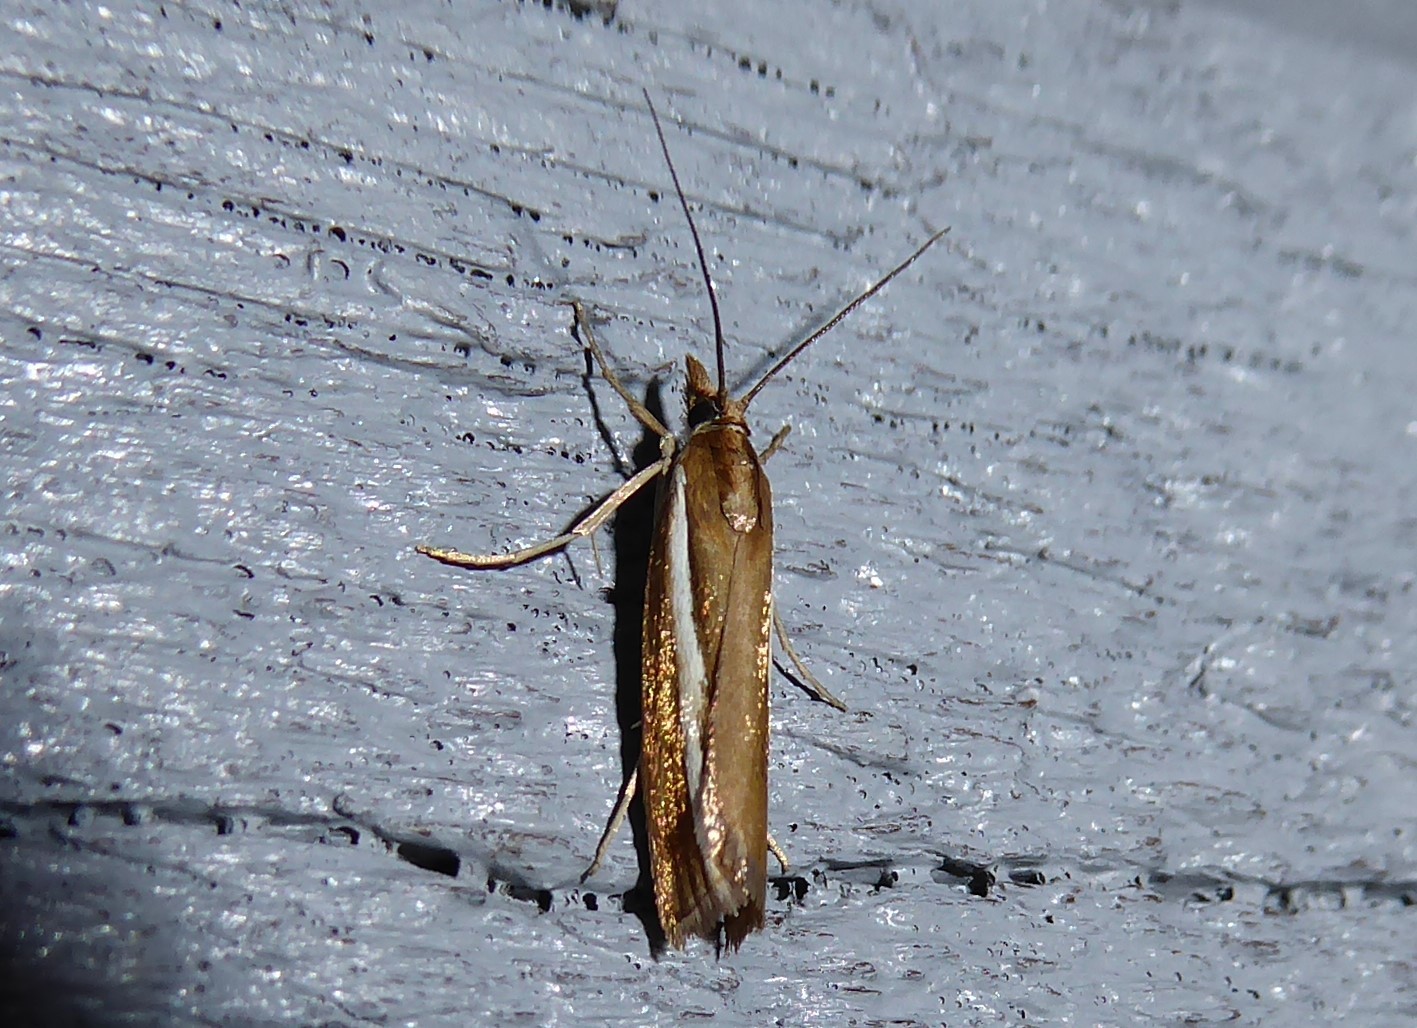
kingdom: Animalia
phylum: Arthropoda
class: Insecta
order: Lepidoptera
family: Crambidae
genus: Orocrambus
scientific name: Orocrambus flexuosellus
